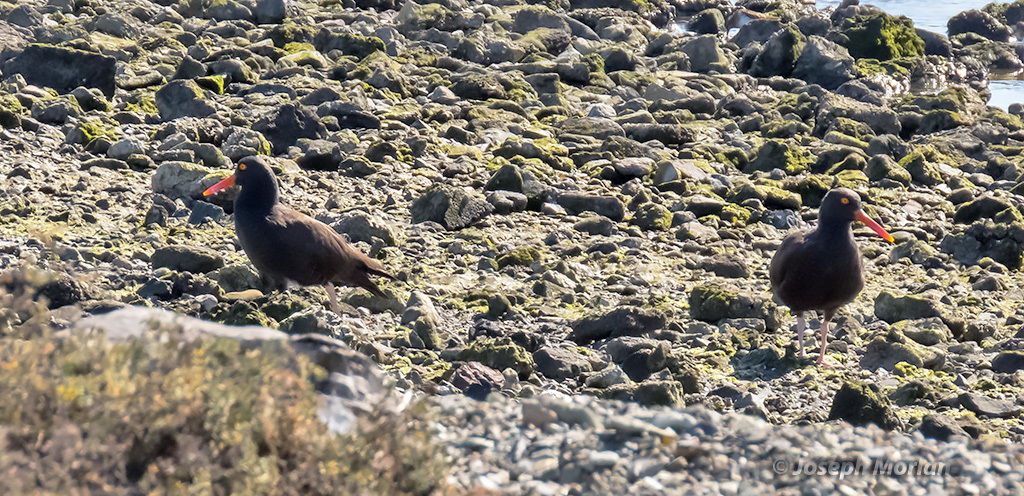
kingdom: Animalia
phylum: Chordata
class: Aves
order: Charadriiformes
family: Haematopodidae
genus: Haematopus
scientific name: Haematopus bachmani
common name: Black oystercatcher
